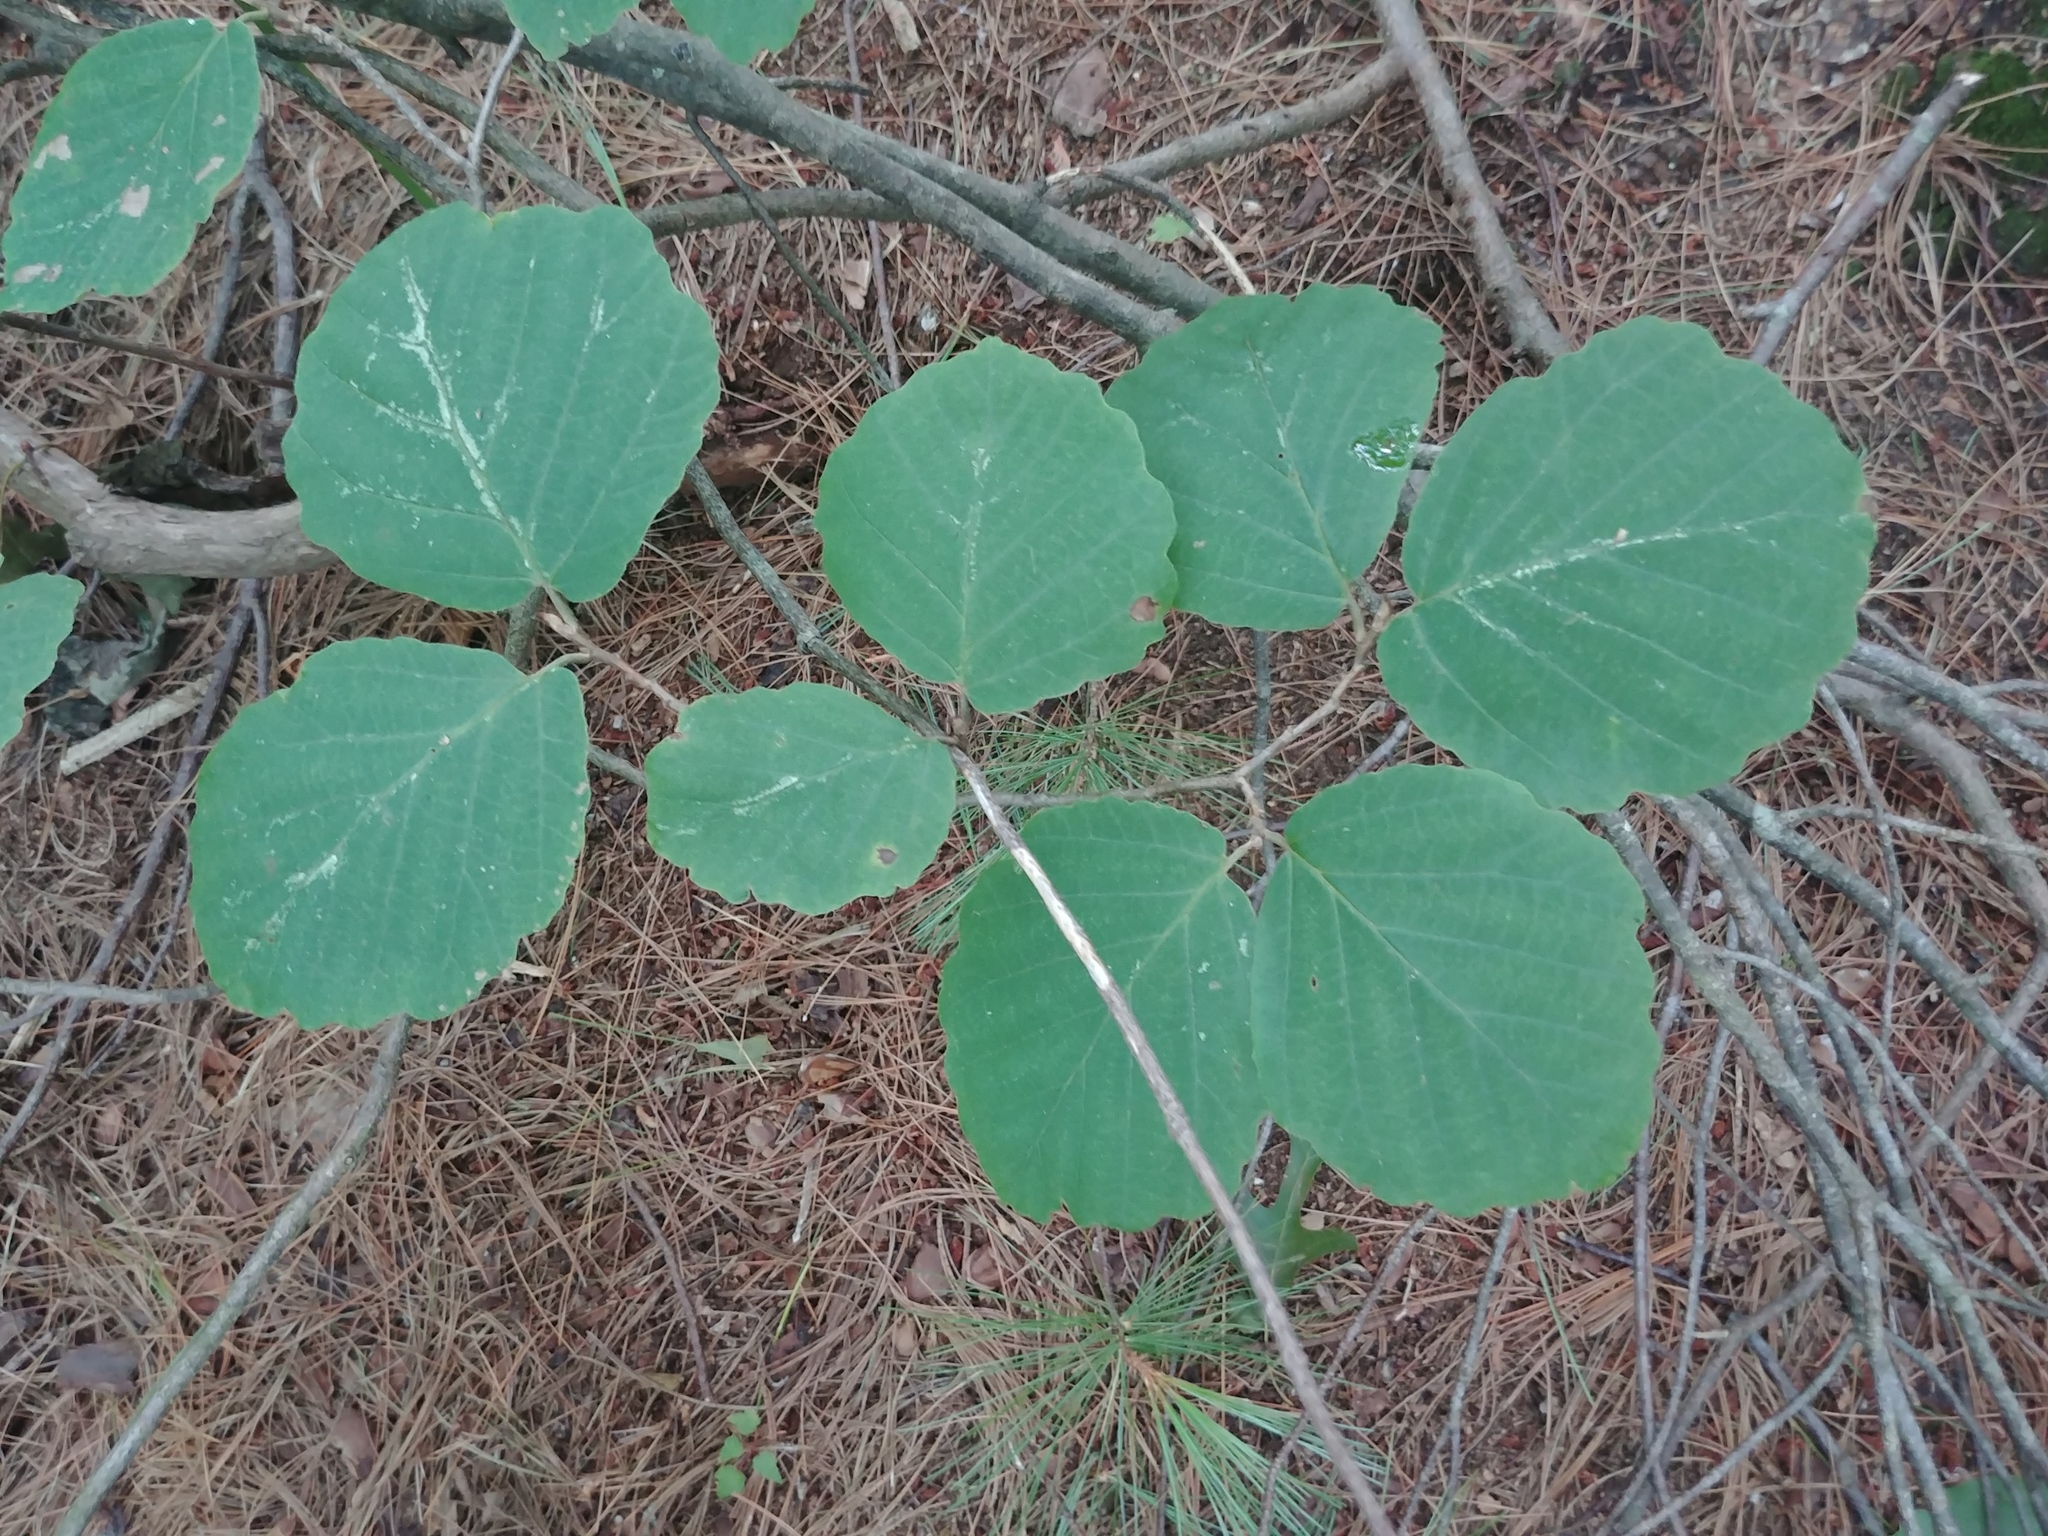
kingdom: Plantae
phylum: Tracheophyta
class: Magnoliopsida
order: Saxifragales
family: Hamamelidaceae
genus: Hamamelis
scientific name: Hamamelis virginiana
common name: Witch-hazel
